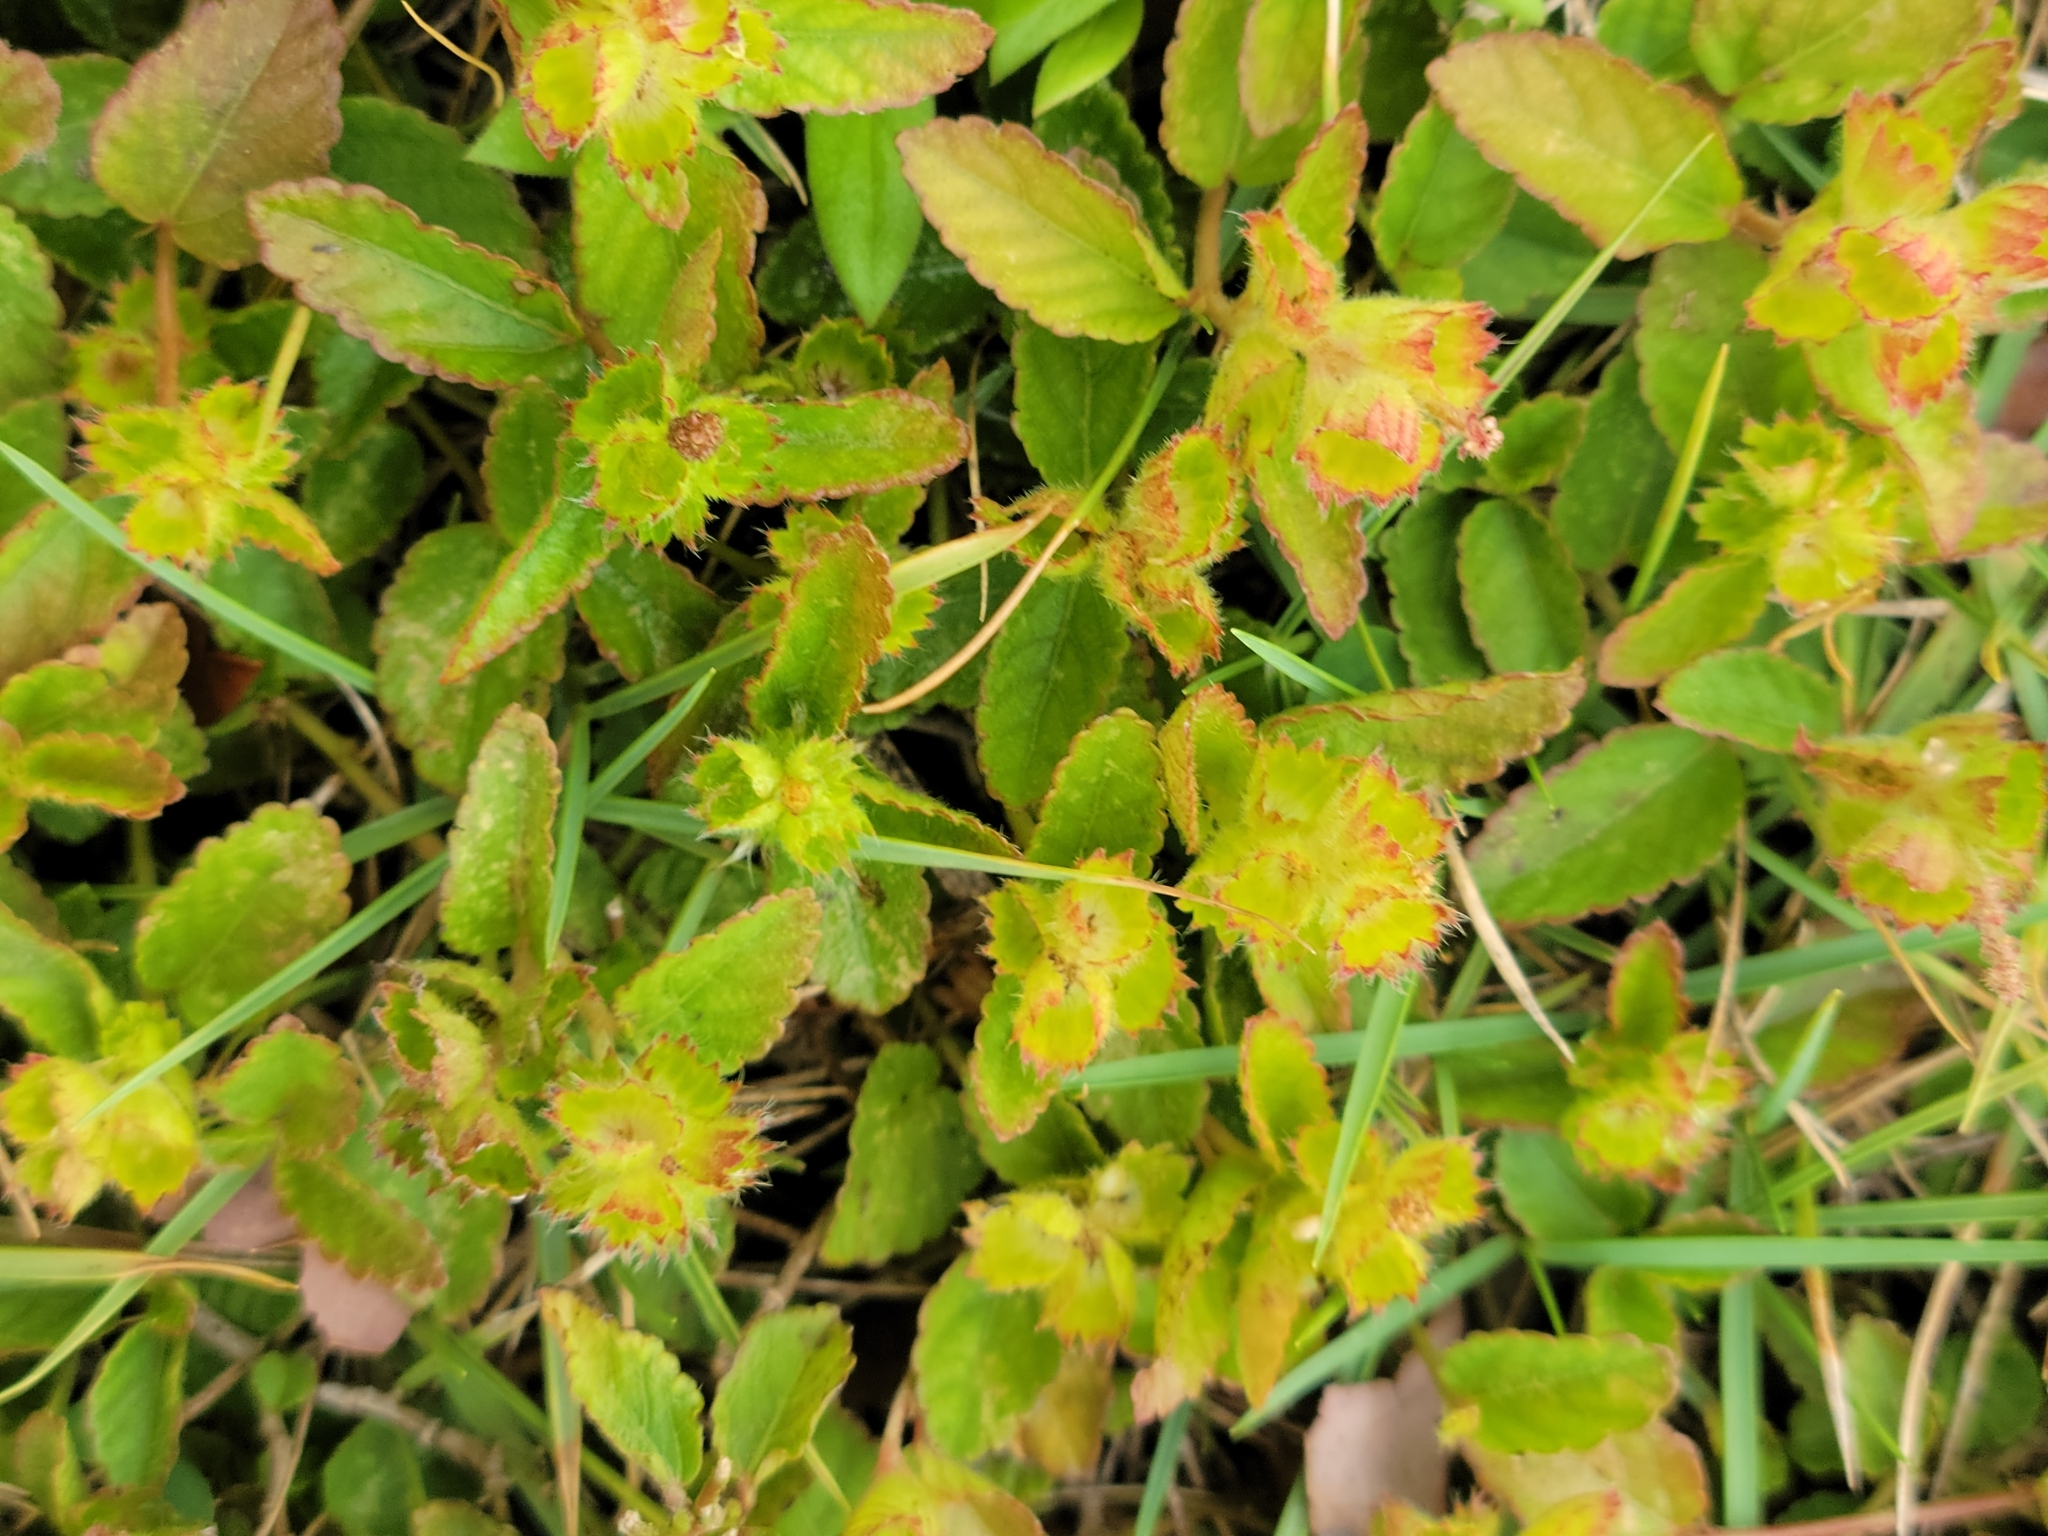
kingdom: Plantae
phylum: Tracheophyta
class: Magnoliopsida
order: Malpighiales
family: Euphorbiaceae
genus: Acalypha
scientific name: Acalypha chamaedrifolia
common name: Bastard copperleaf
